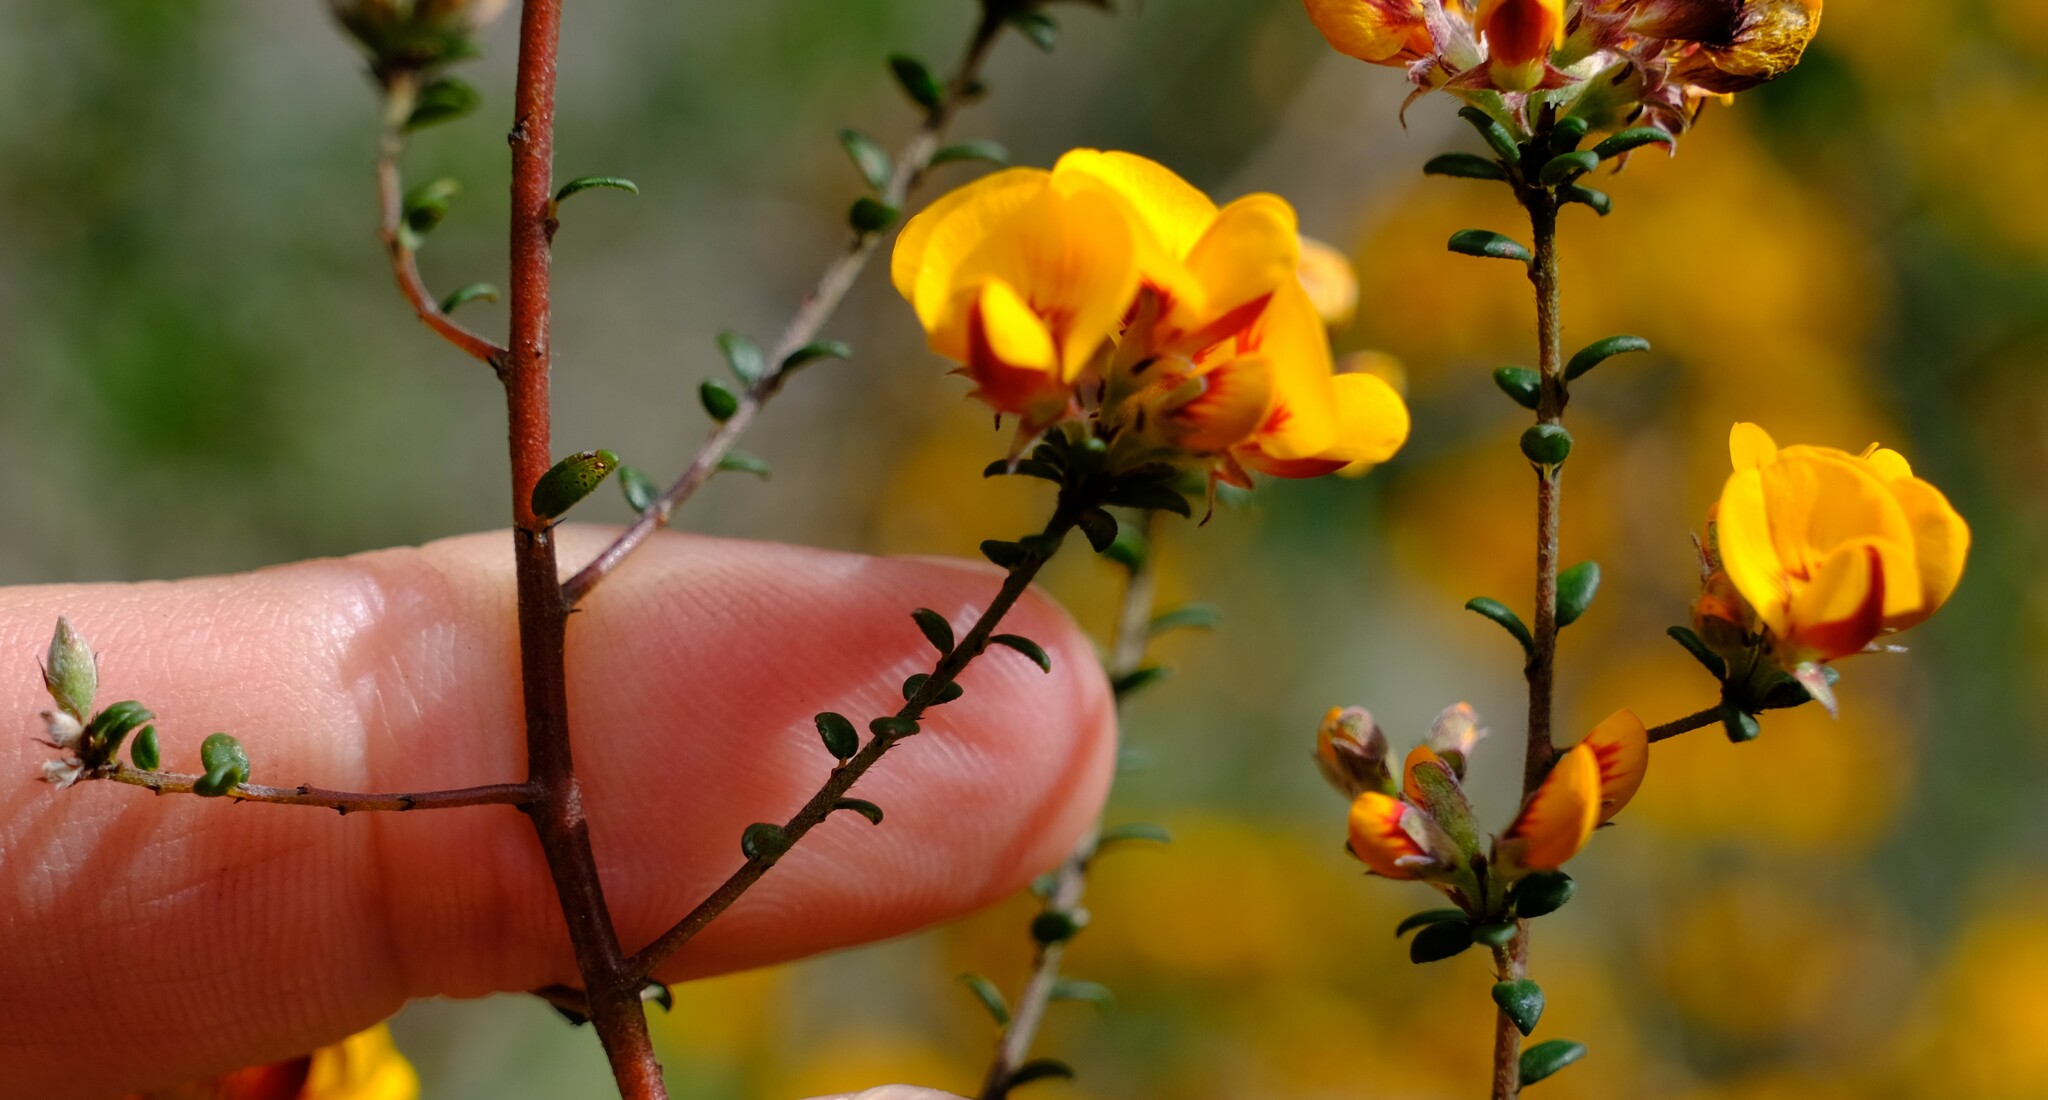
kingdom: Plantae
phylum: Tracheophyta
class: Magnoliopsida
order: Fabales
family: Fabaceae
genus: Pultenaea
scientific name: Pultenaea stricta
